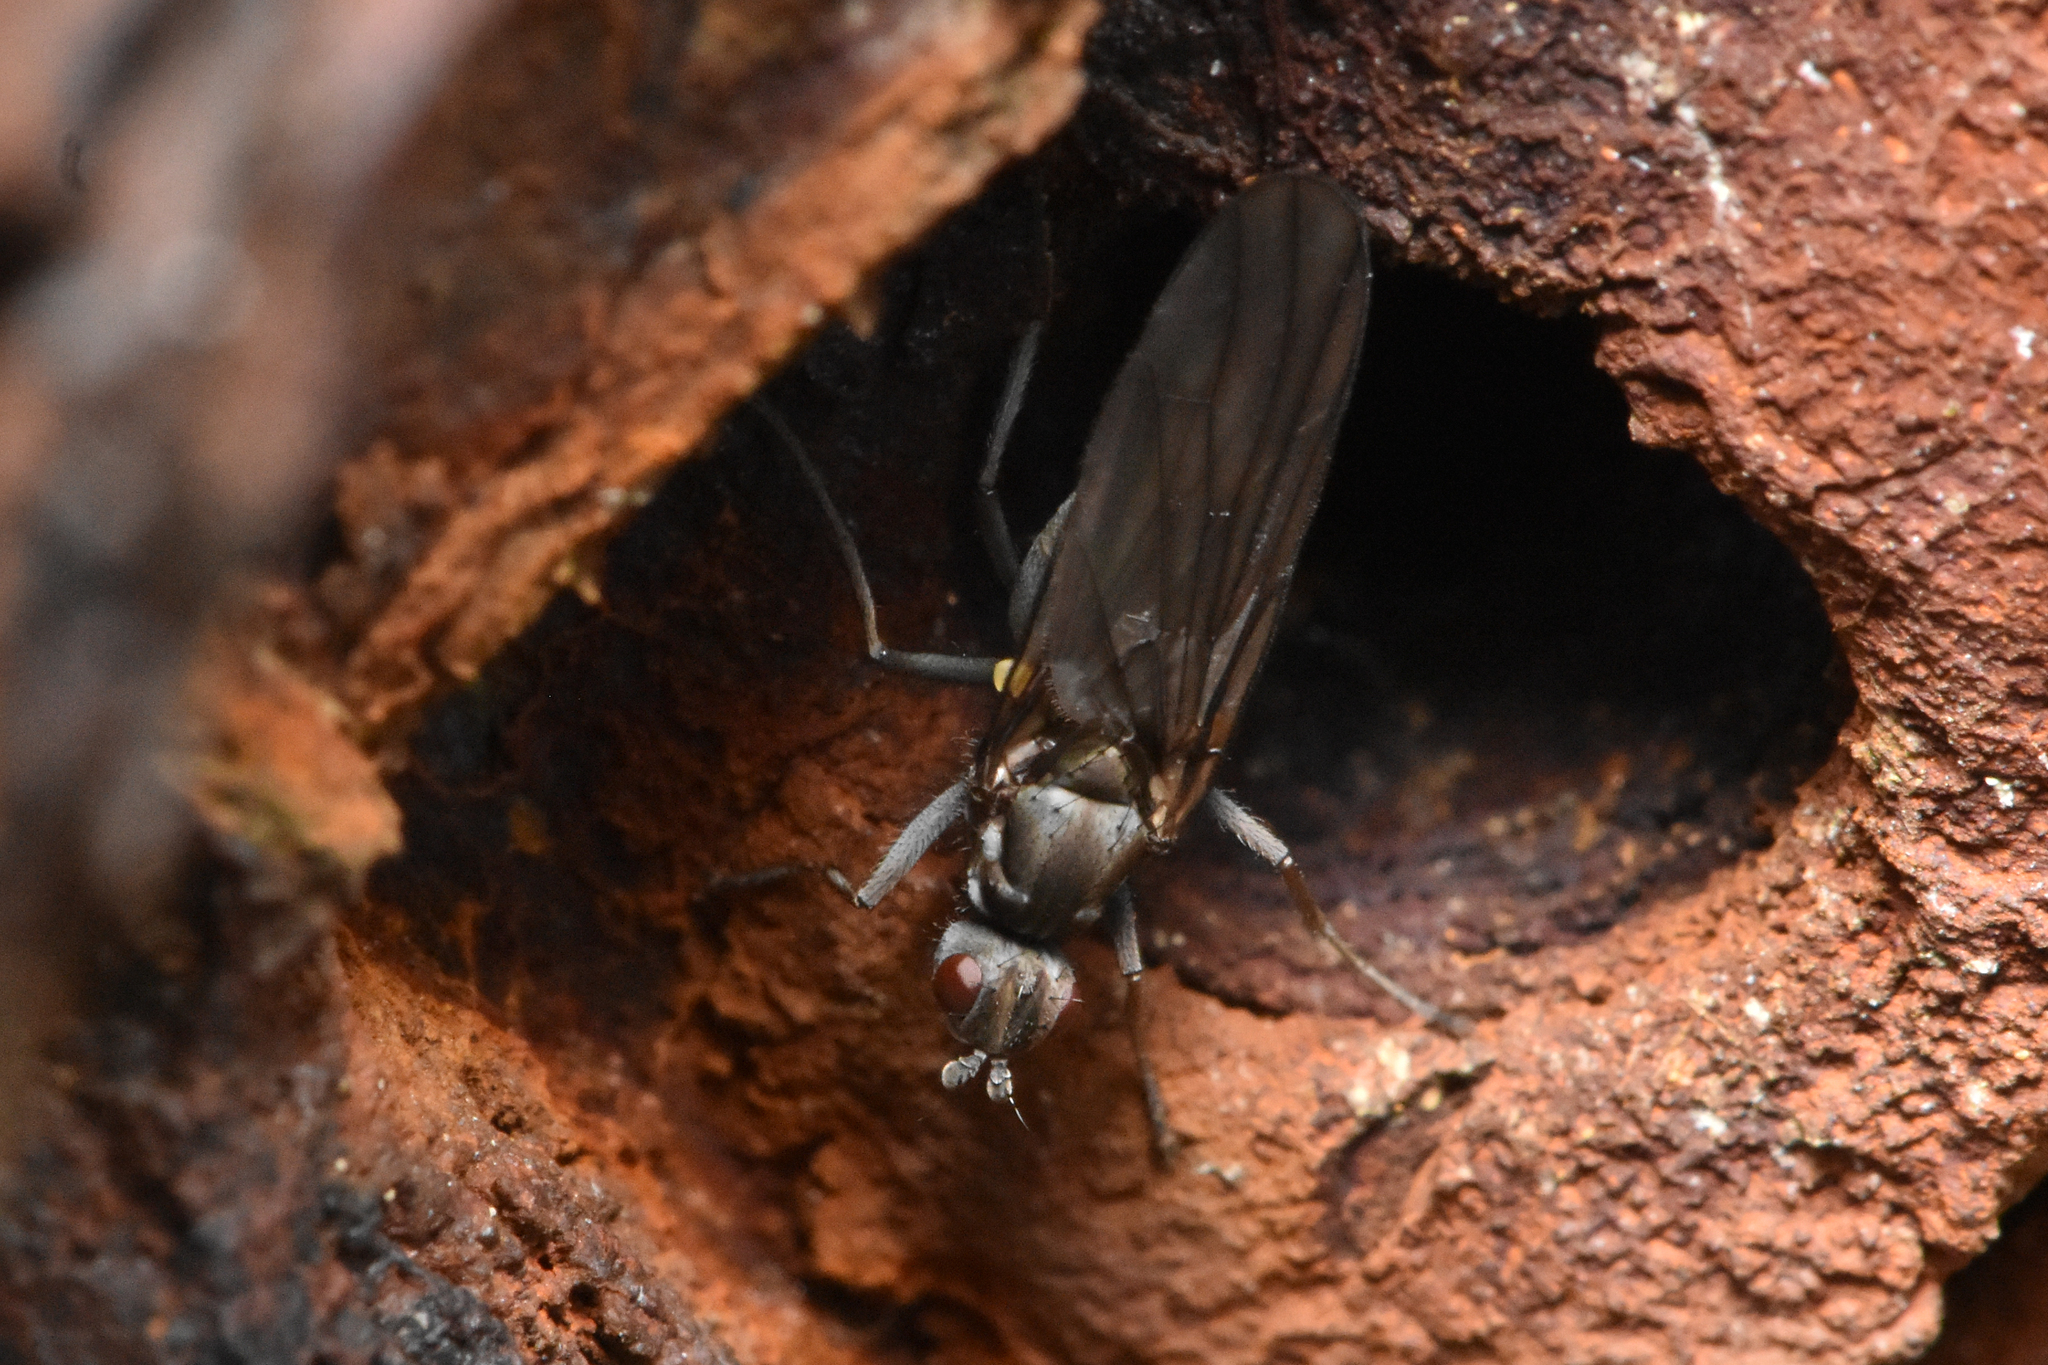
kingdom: Animalia
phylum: Arthropoda
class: Insecta
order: Diptera
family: Dryomyzidae
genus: Oedoparena
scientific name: Oedoparena glauca
